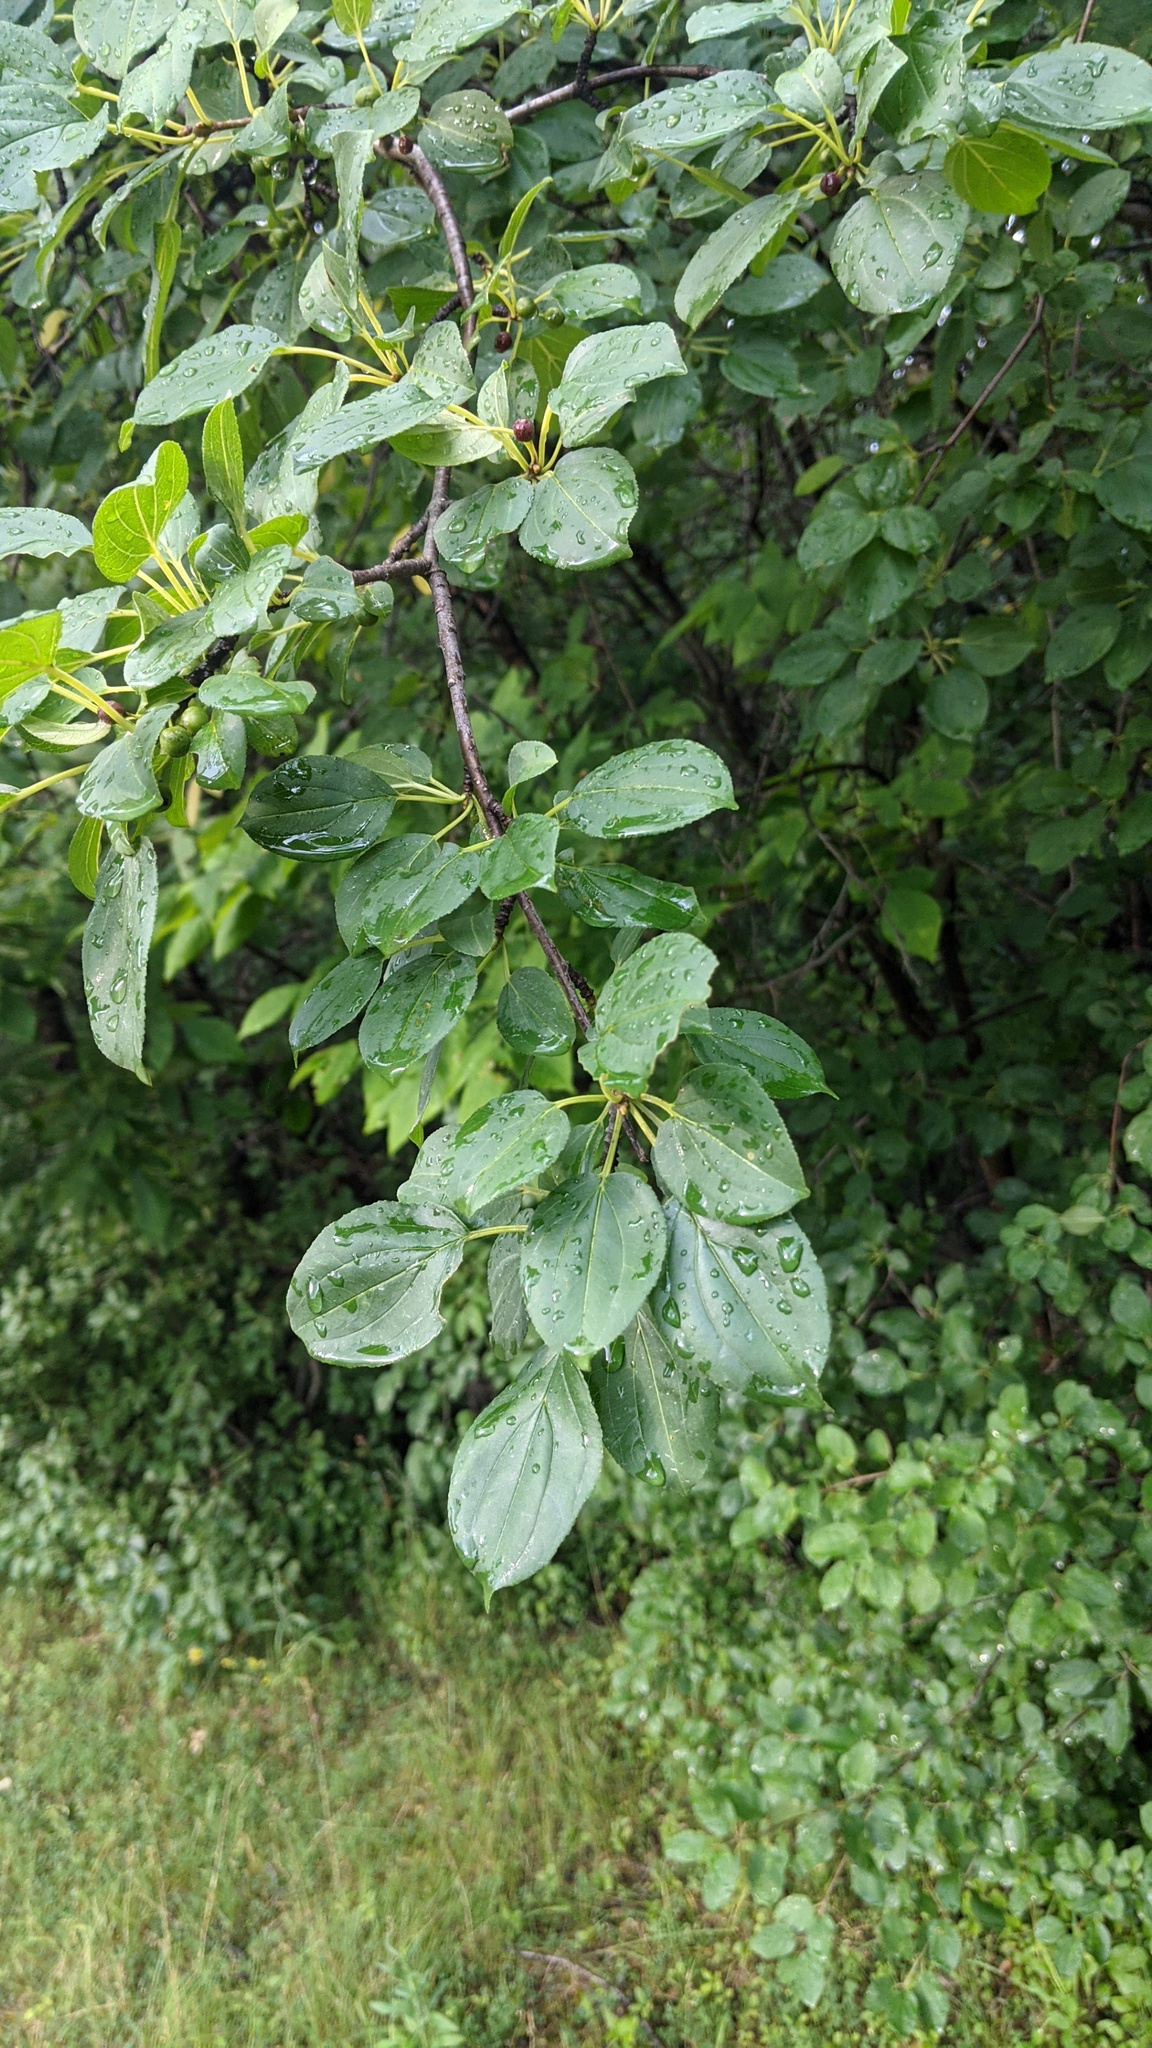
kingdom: Plantae
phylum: Tracheophyta
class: Magnoliopsida
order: Rosales
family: Rhamnaceae
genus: Rhamnus
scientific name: Rhamnus cathartica
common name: Common buckthorn
